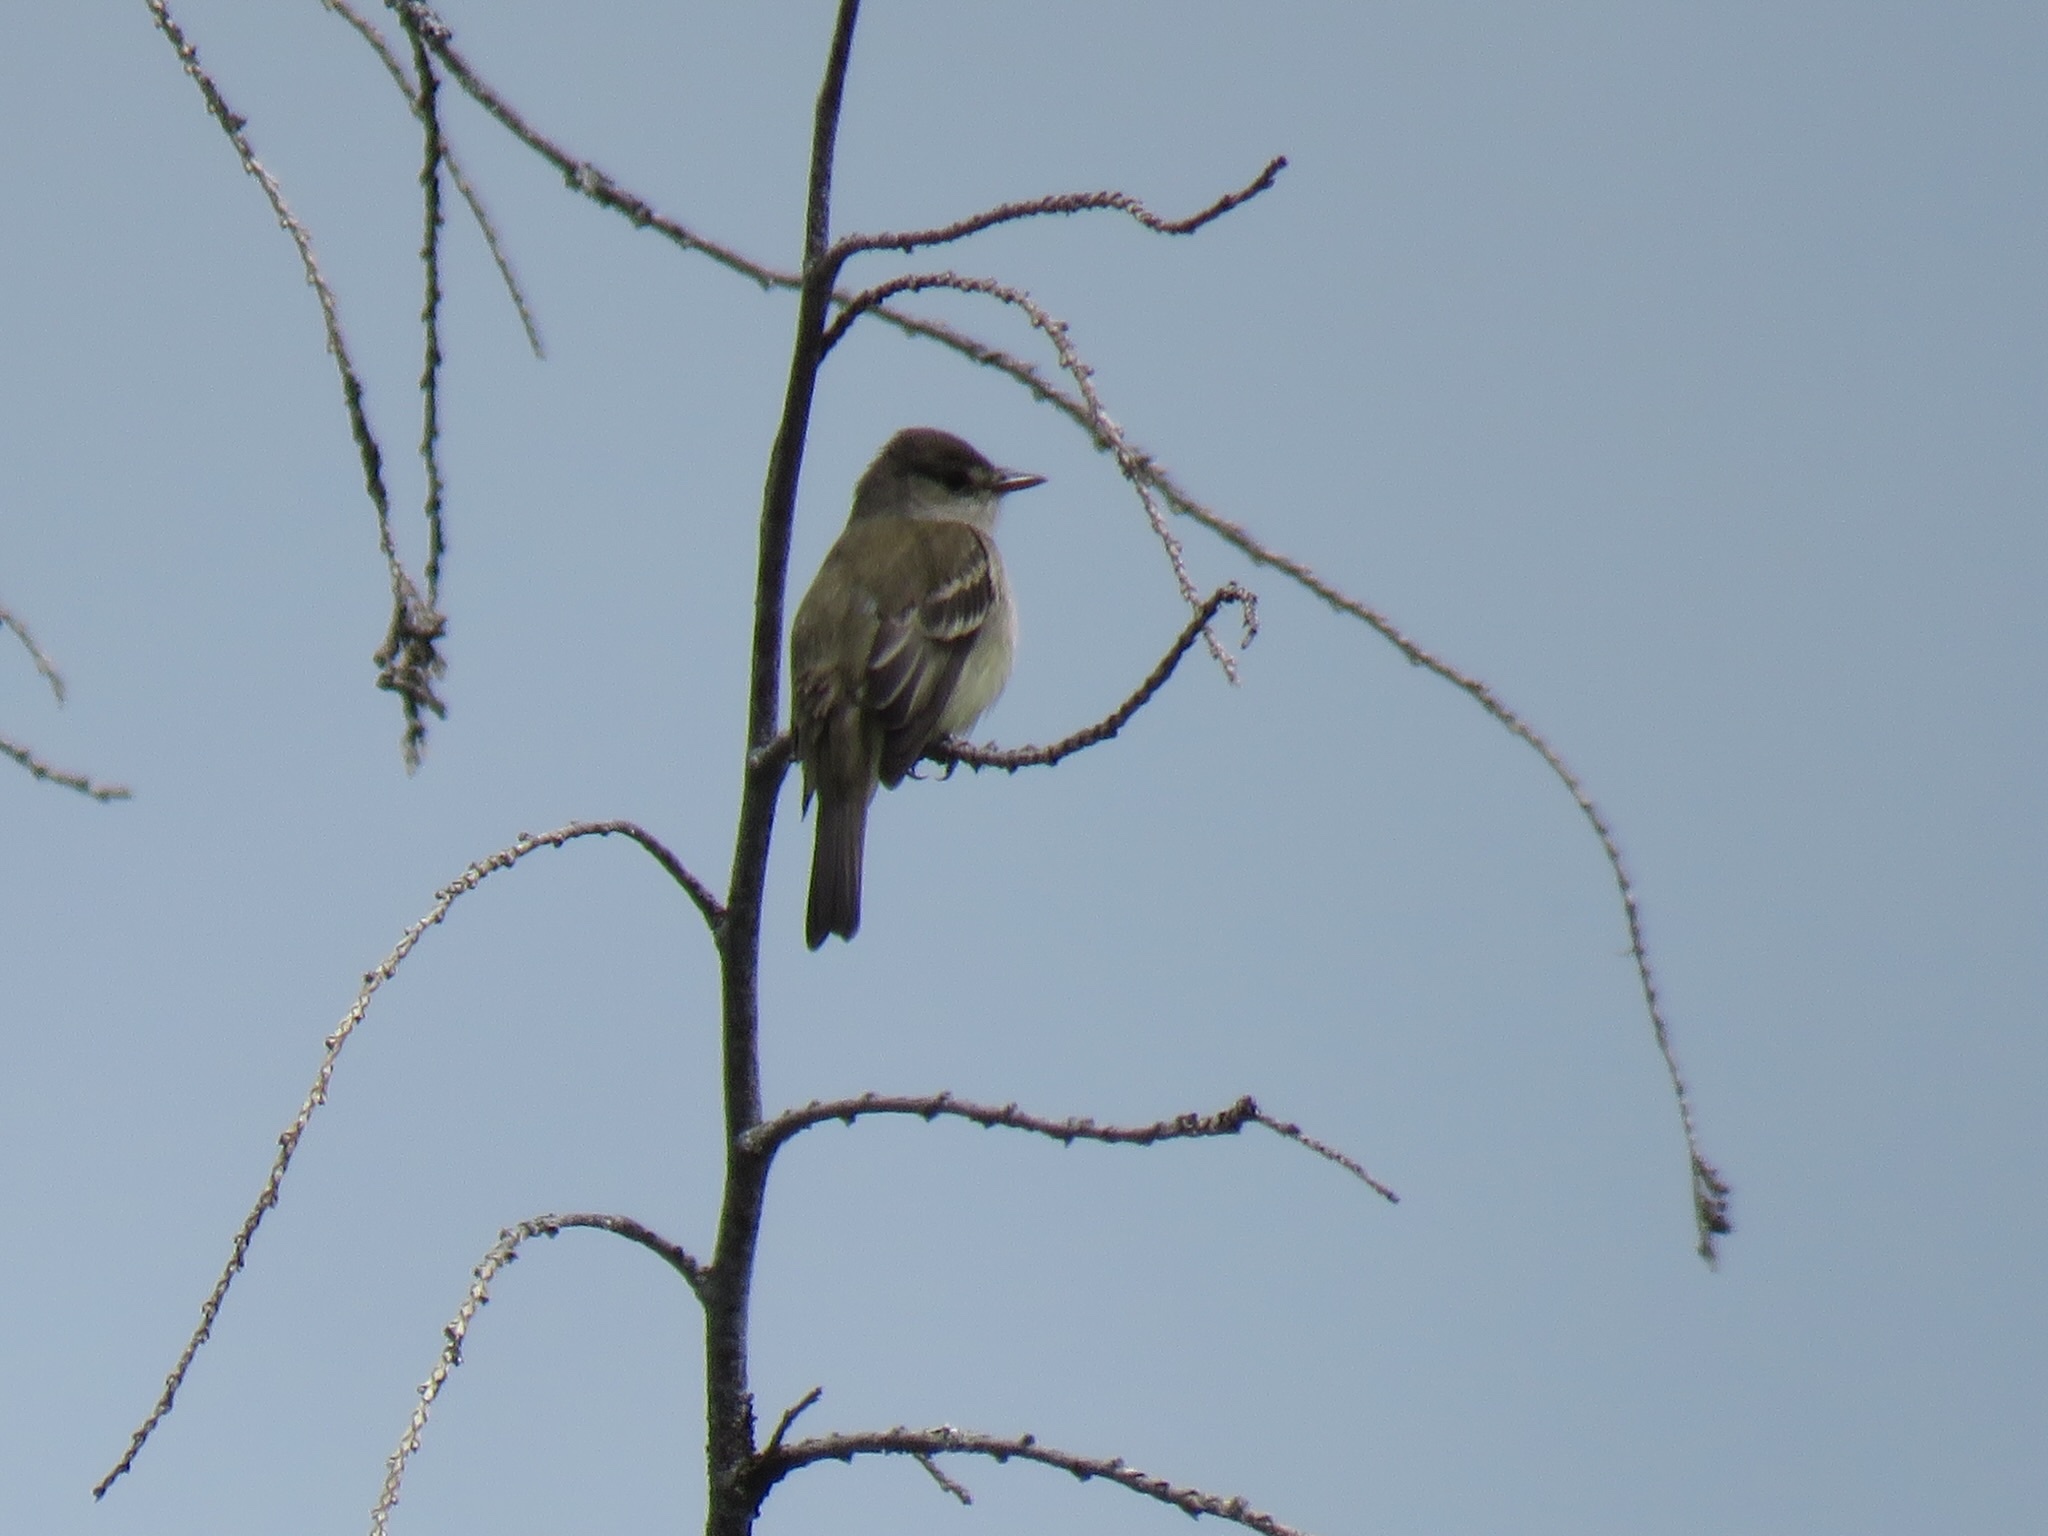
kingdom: Animalia
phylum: Chordata
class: Aves
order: Passeriformes
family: Tyrannidae
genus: Empidonax
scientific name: Empidonax traillii
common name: Willow flycatcher
